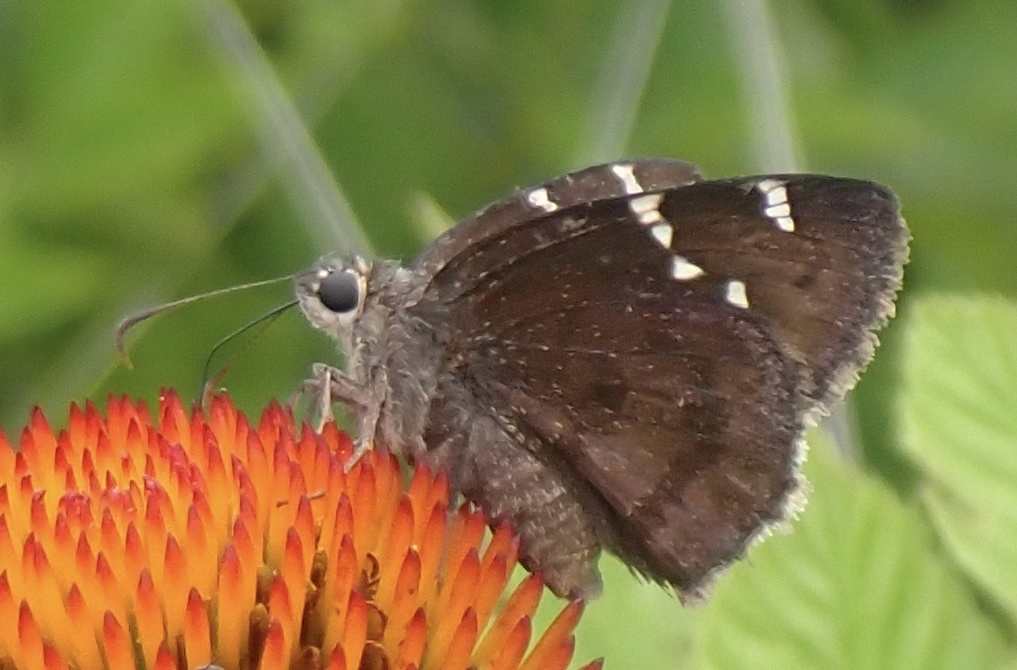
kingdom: Animalia
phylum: Arthropoda
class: Insecta
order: Lepidoptera
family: Hesperiidae
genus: Thorybes
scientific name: Thorybes daunus
